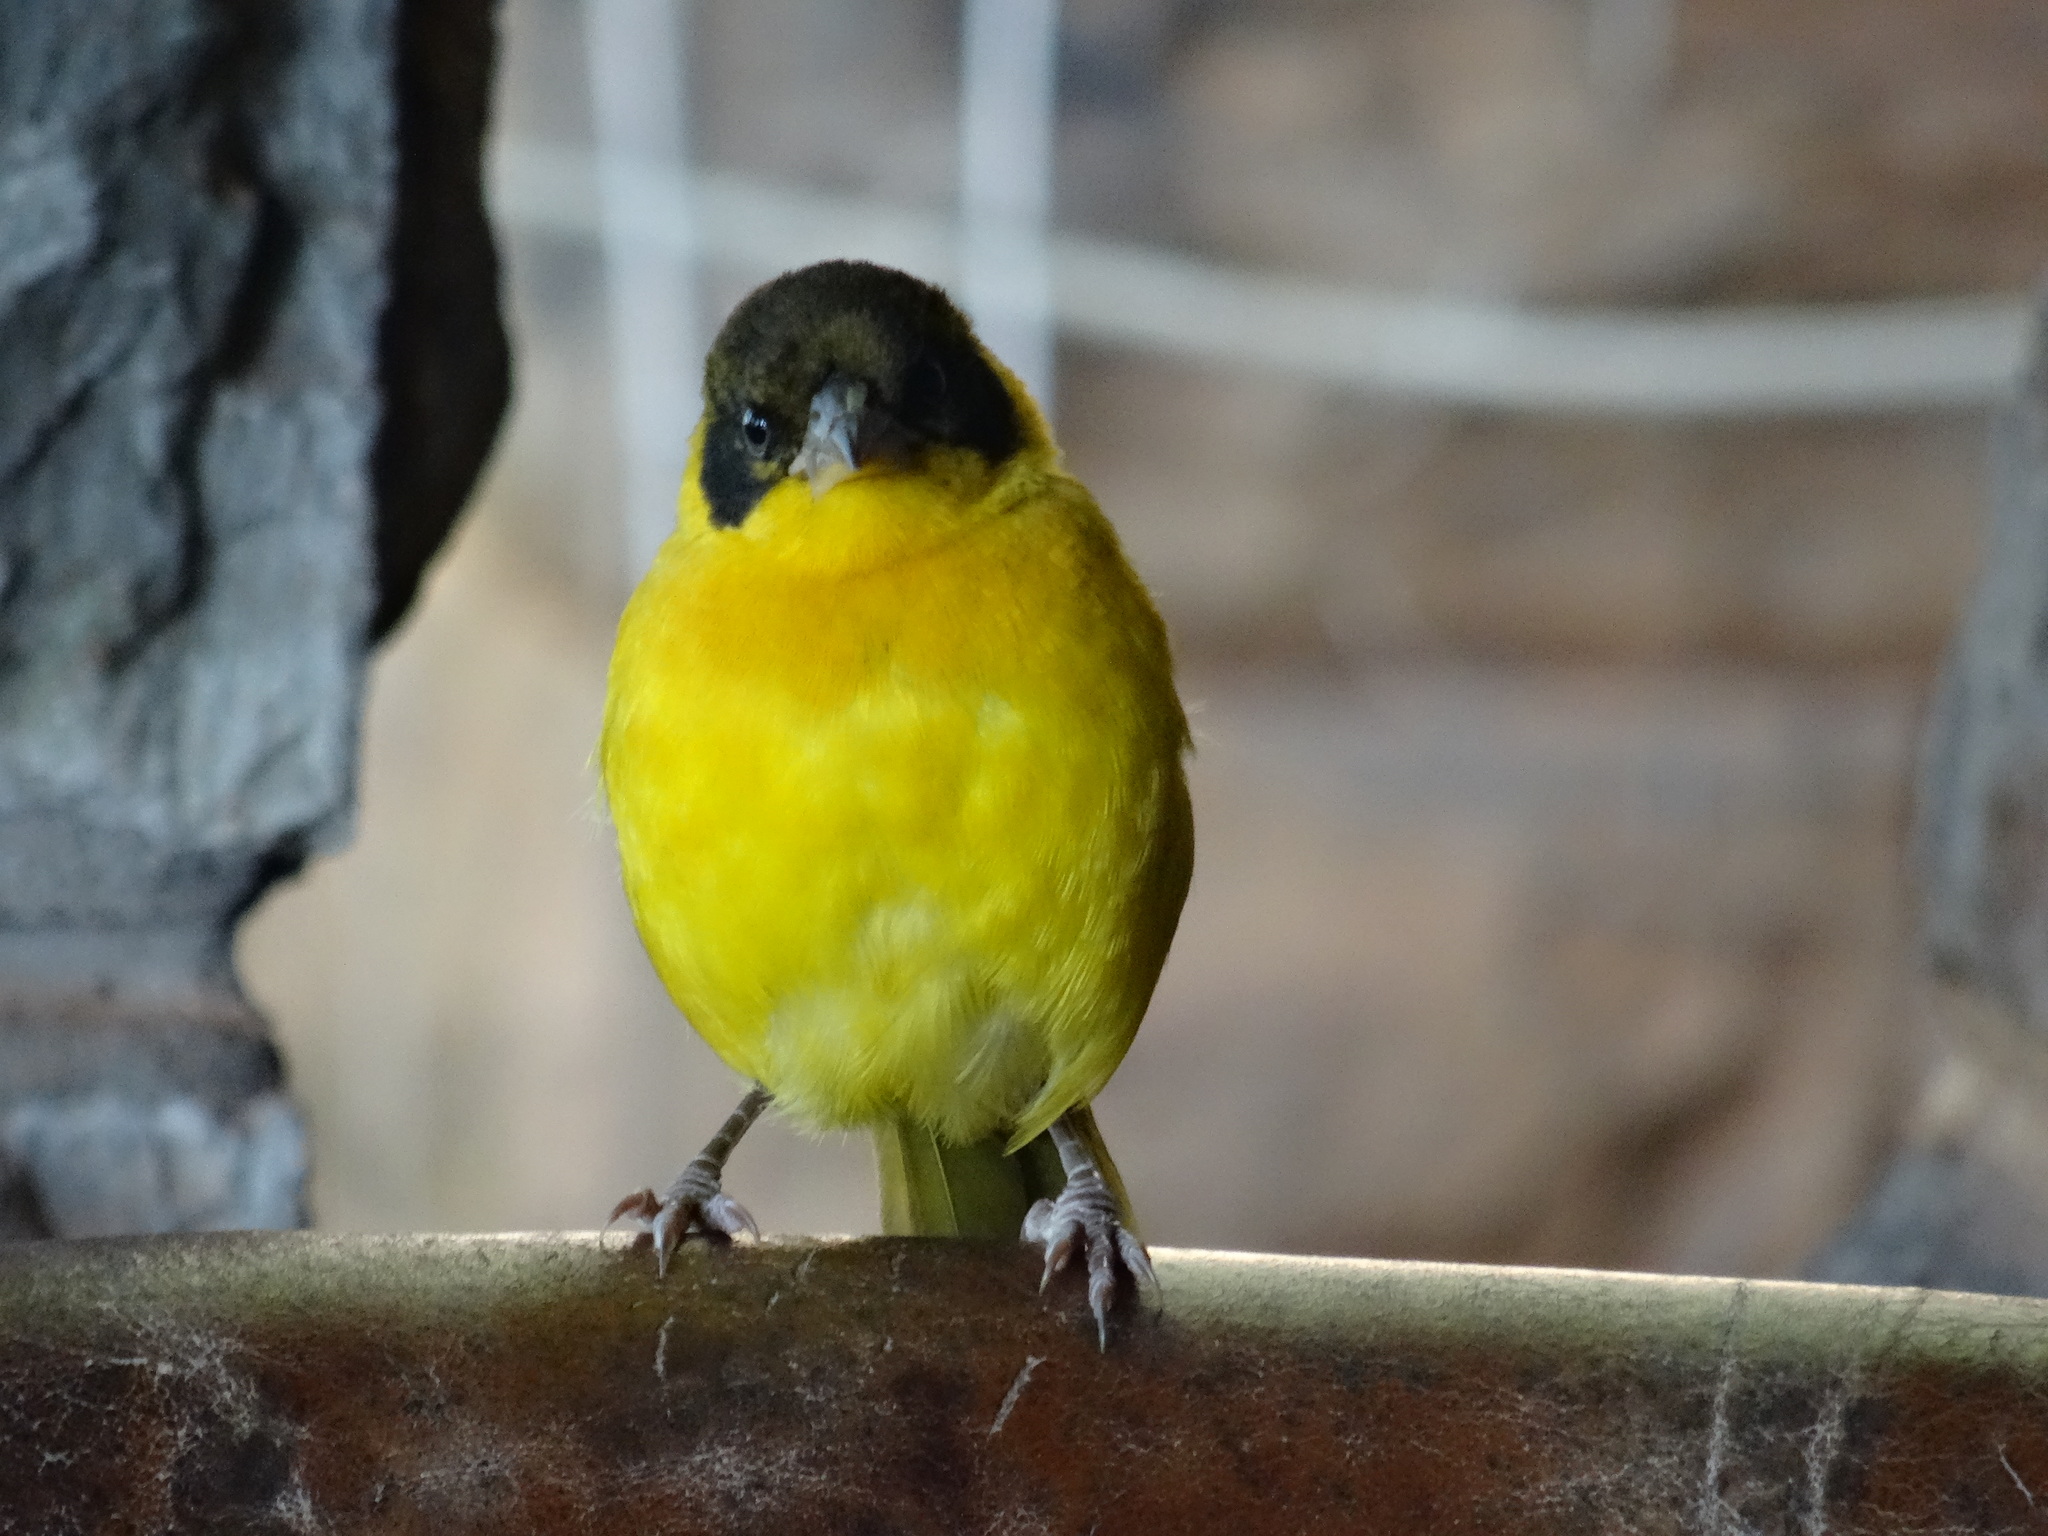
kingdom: Animalia
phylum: Chordata
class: Aves
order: Passeriformes
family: Ploceidae
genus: Ploceus
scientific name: Ploceus baglafecht
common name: Baglafecht weaver
